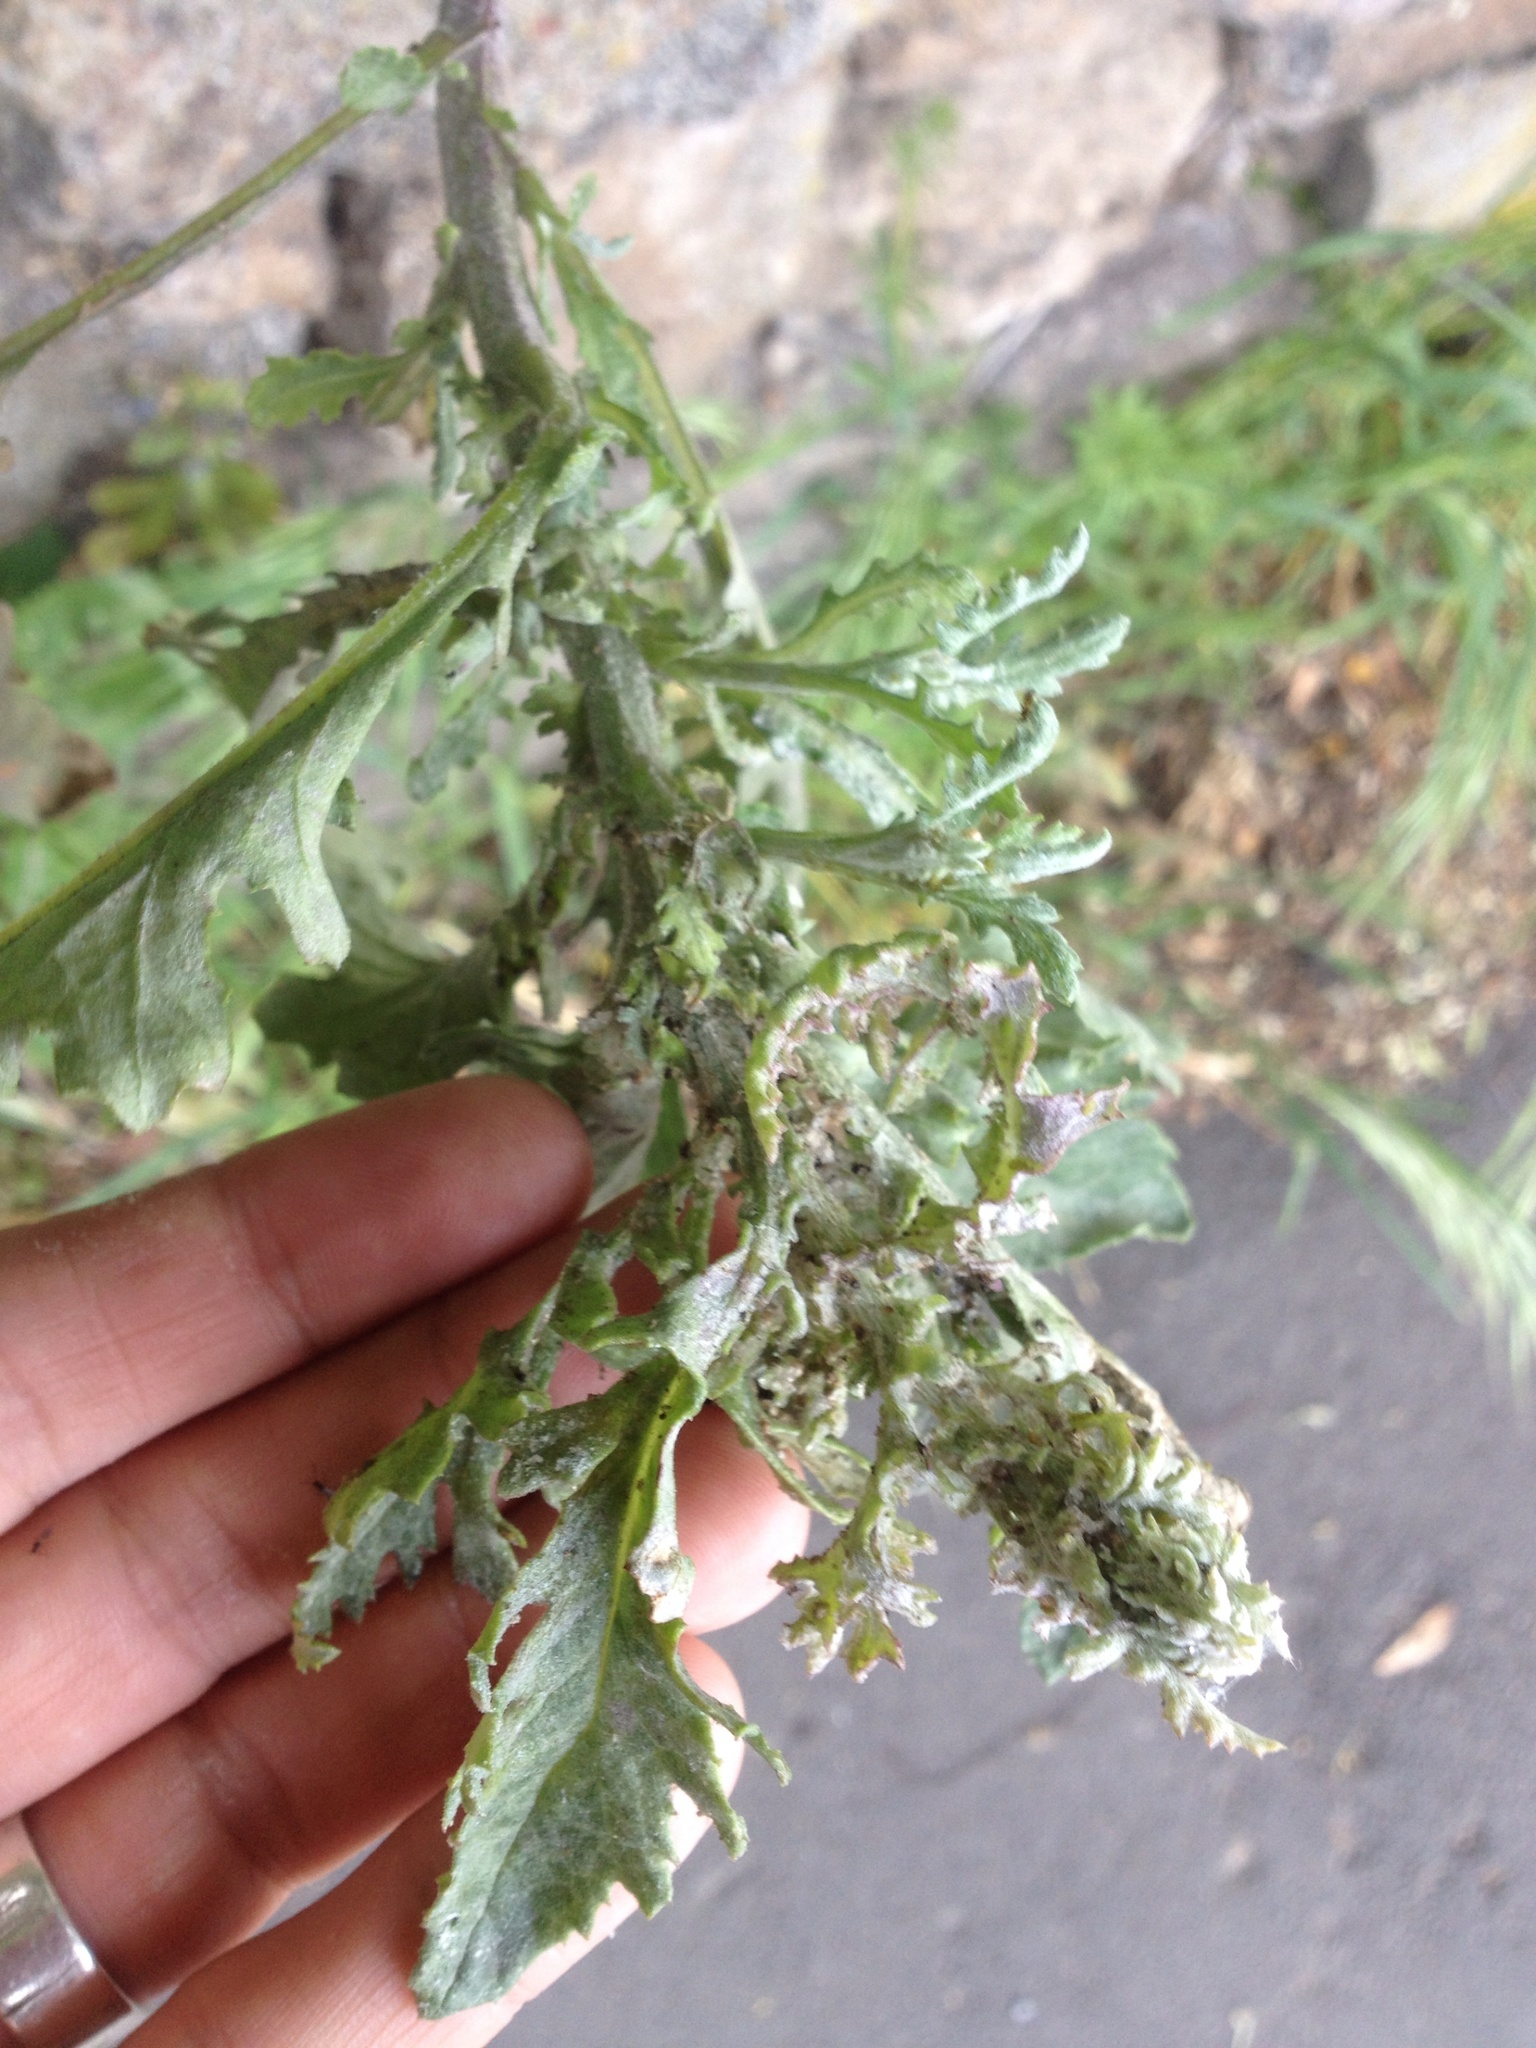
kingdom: Plantae
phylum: Tracheophyta
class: Magnoliopsida
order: Asterales
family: Asteraceae
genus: Senecio
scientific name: Senecio glomeratus
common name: Cutleaf burnweed
